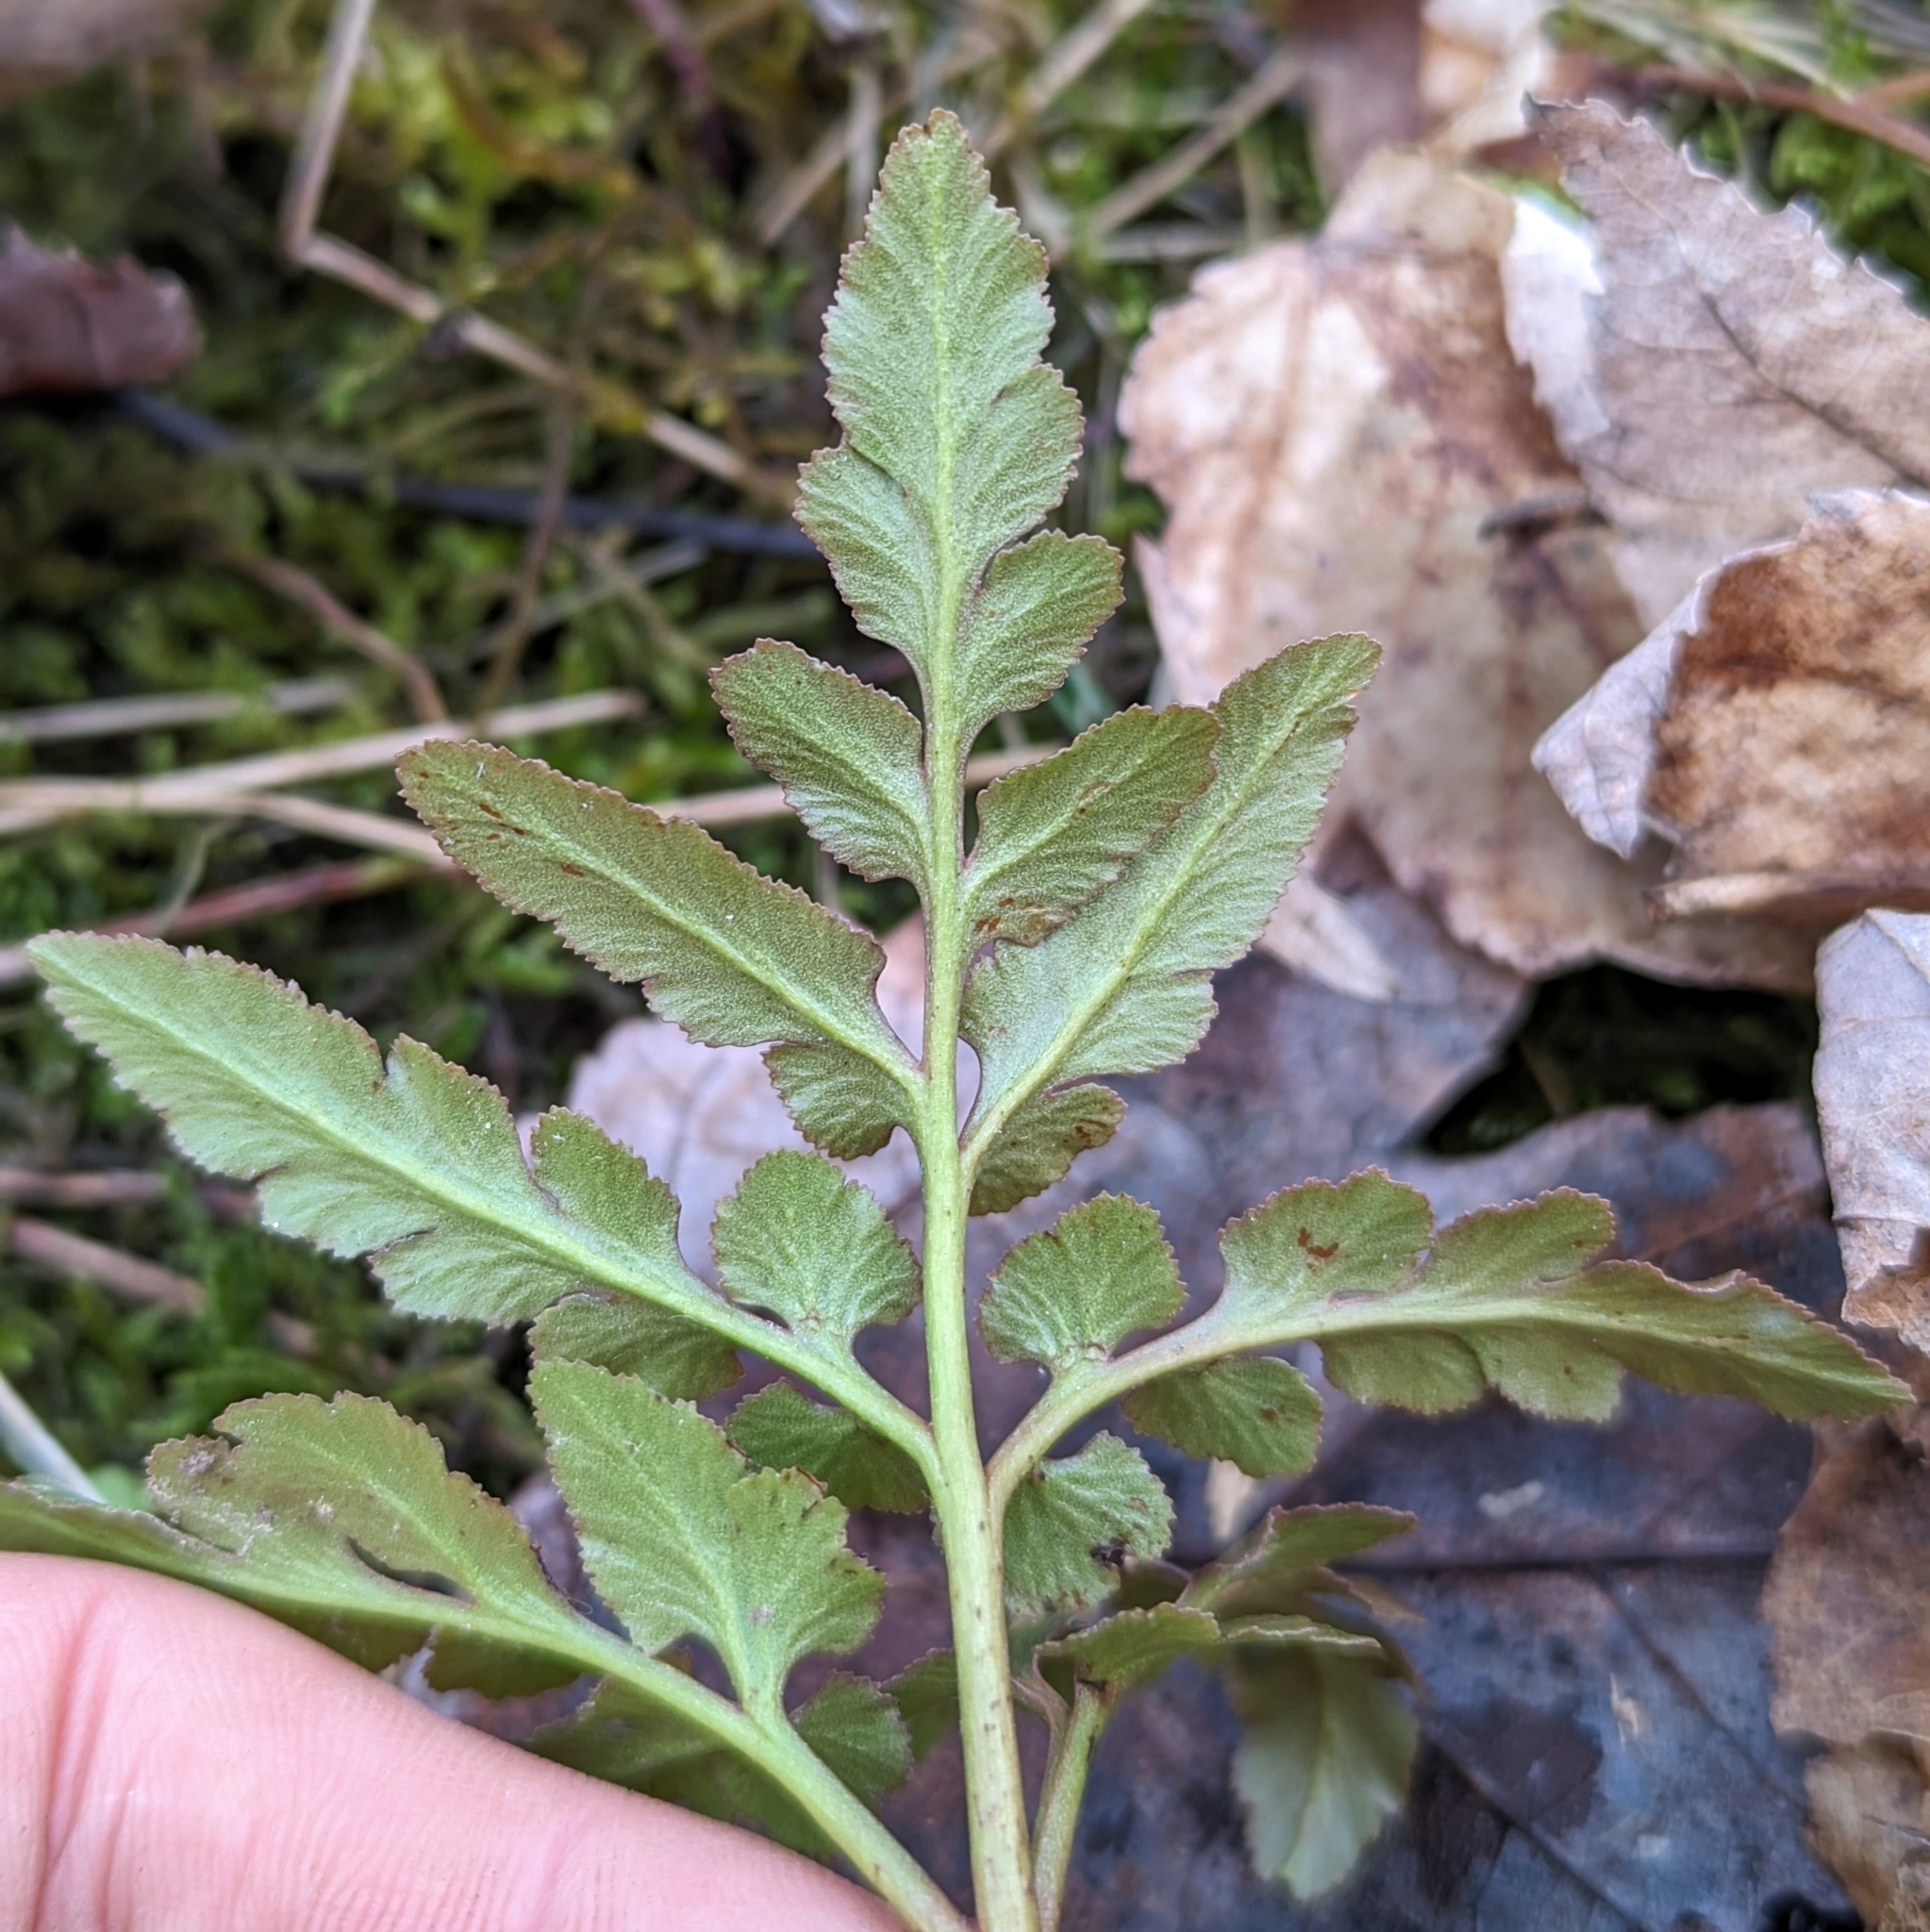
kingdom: Plantae
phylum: Tracheophyta
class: Polypodiopsida
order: Ophioglossales
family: Ophioglossaceae
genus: Sceptridium
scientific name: Sceptridium dissectum
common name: Cut-leaved grapefern
